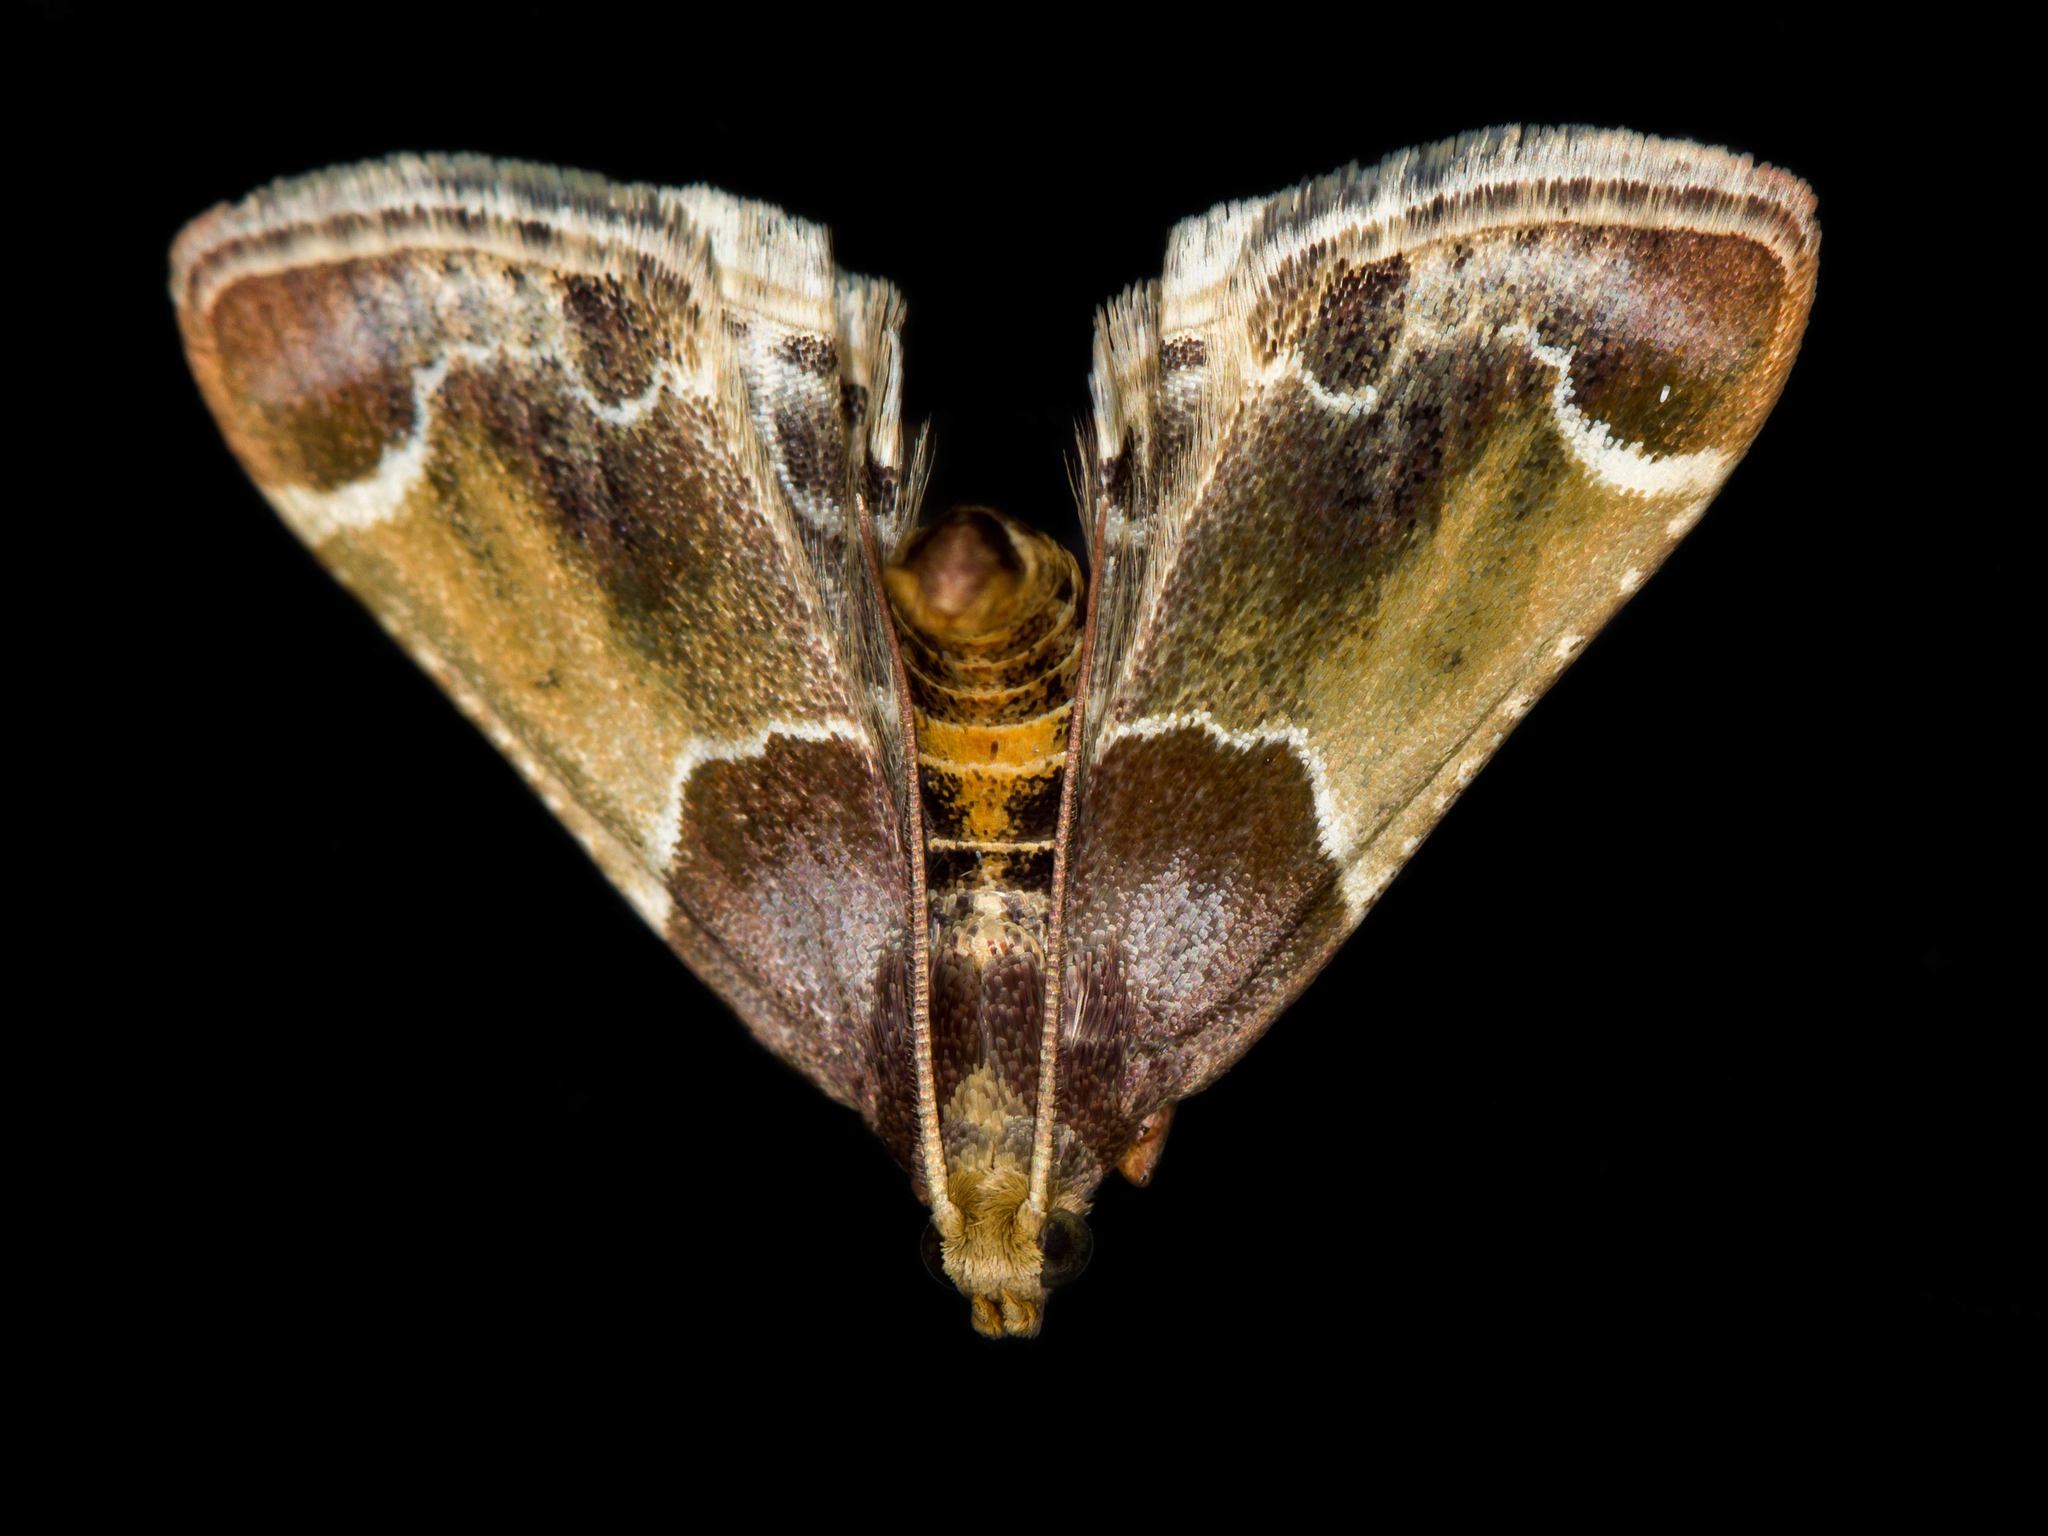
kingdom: Animalia
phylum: Arthropoda
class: Insecta
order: Lepidoptera
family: Pyralidae
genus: Pyralis
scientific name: Pyralis farinalis
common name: Meal moth
